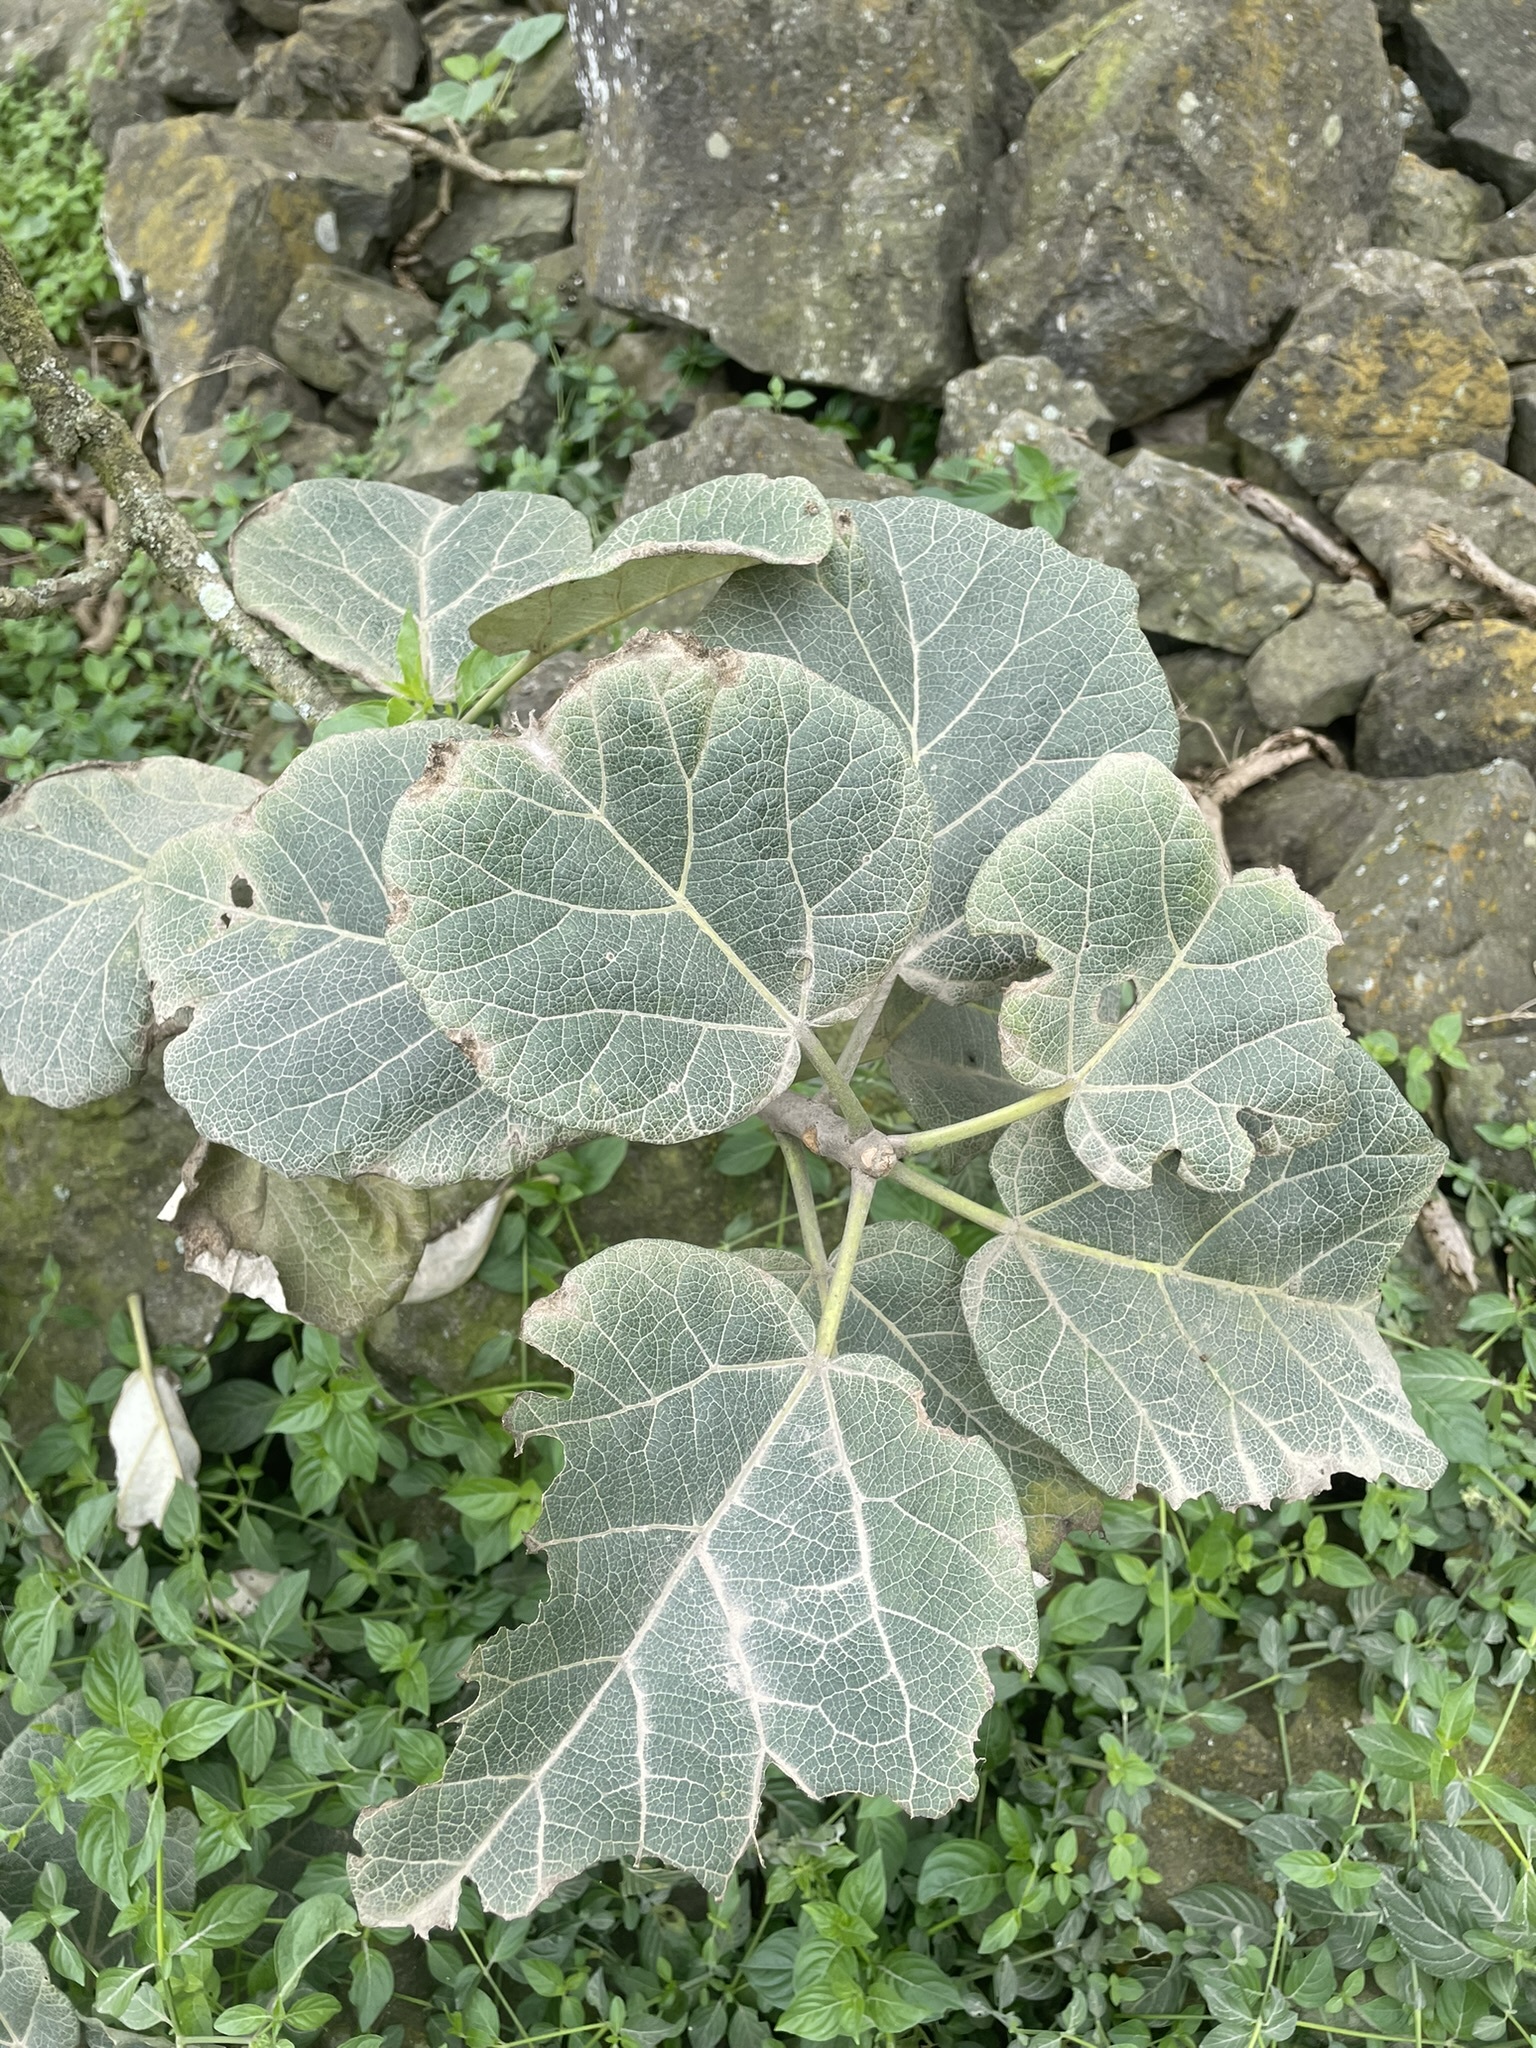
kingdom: Plantae
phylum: Tracheophyta
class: Magnoliopsida
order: Brassicales
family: Caricaceae
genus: Vasconcellea
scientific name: Vasconcellea candicans
